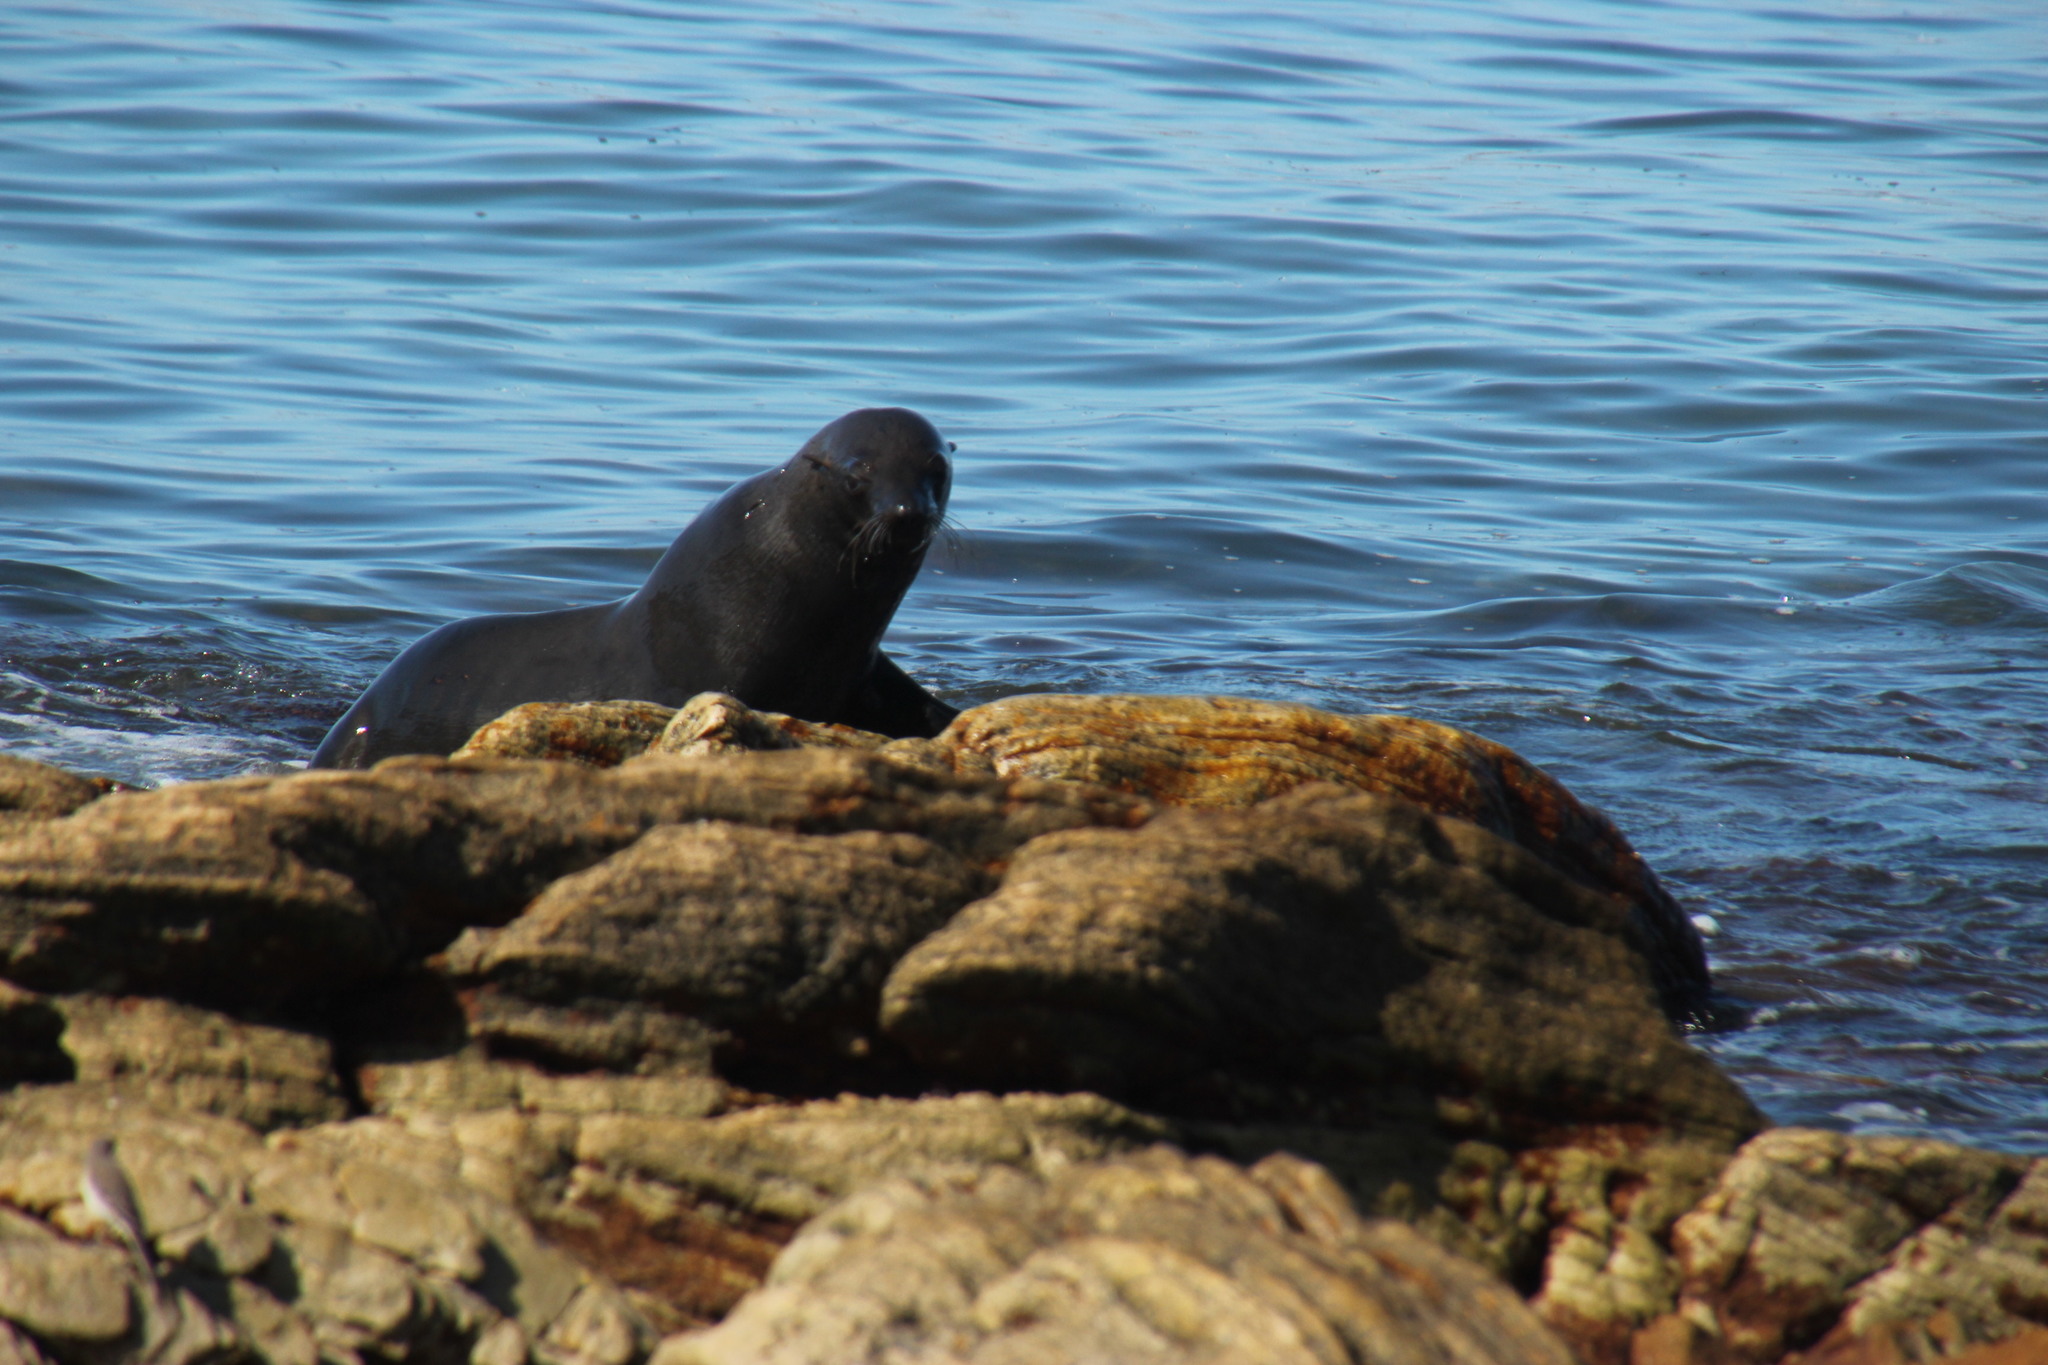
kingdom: Animalia
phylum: Chordata
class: Mammalia
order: Carnivora
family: Otariidae
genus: Arctocephalus
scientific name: Arctocephalus pusillus
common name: Brown fur seal
